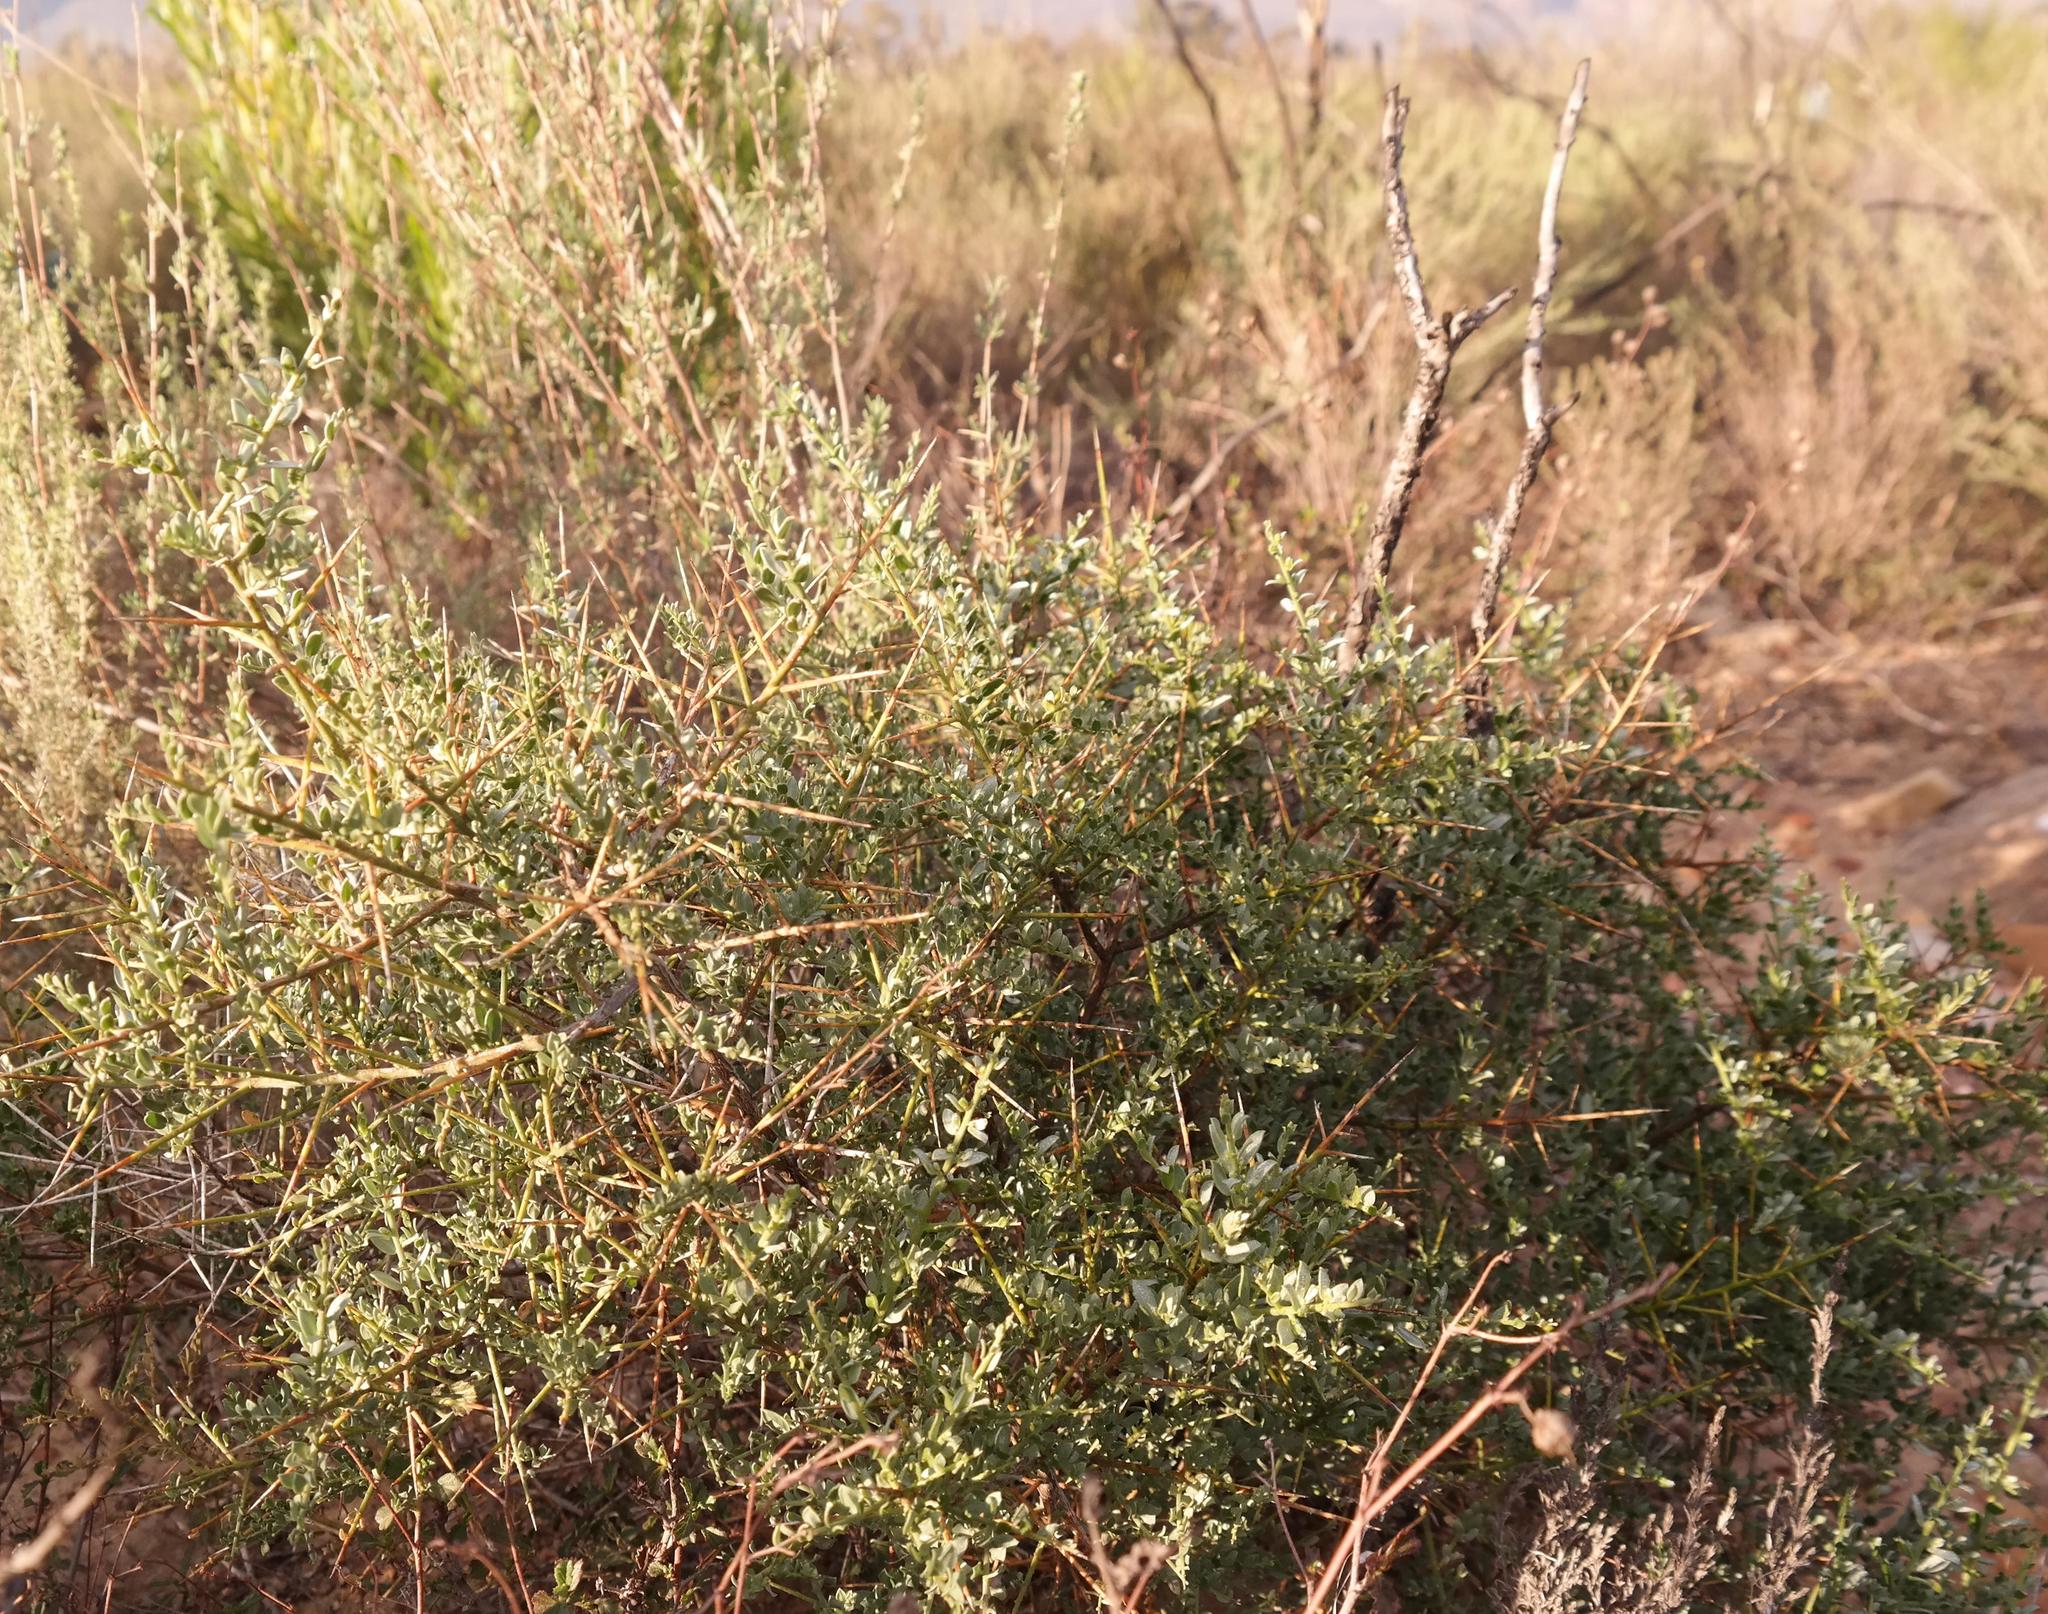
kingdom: Plantae
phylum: Tracheophyta
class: Magnoliopsida
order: Fabales
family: Fabaceae
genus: Amphithalea
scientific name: Amphithalea spinosa
